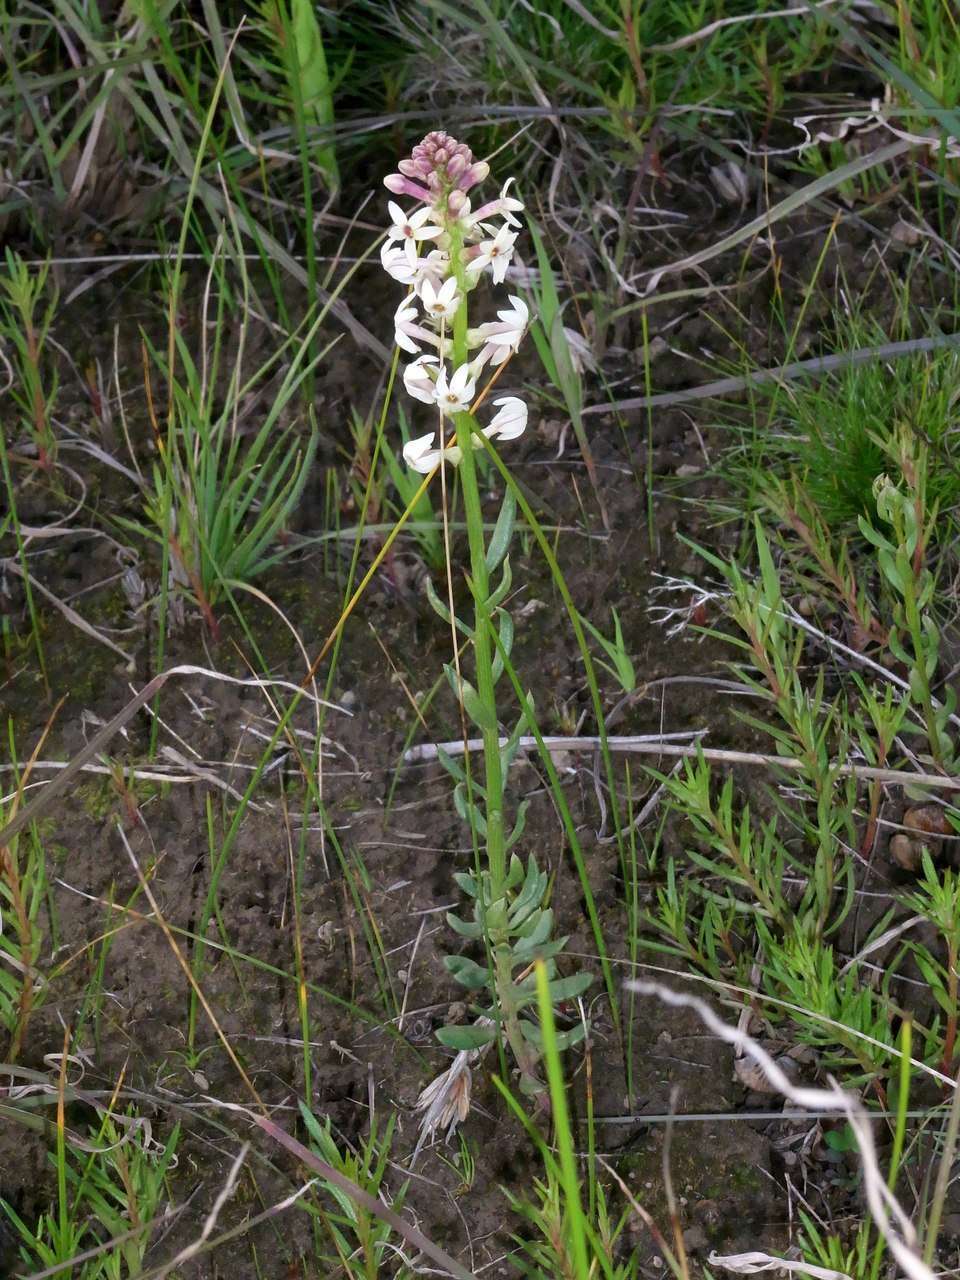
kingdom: Plantae
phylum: Tracheophyta
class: Magnoliopsida
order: Celastrales
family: Celastraceae
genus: Stackhousia
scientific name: Stackhousia subterranea
